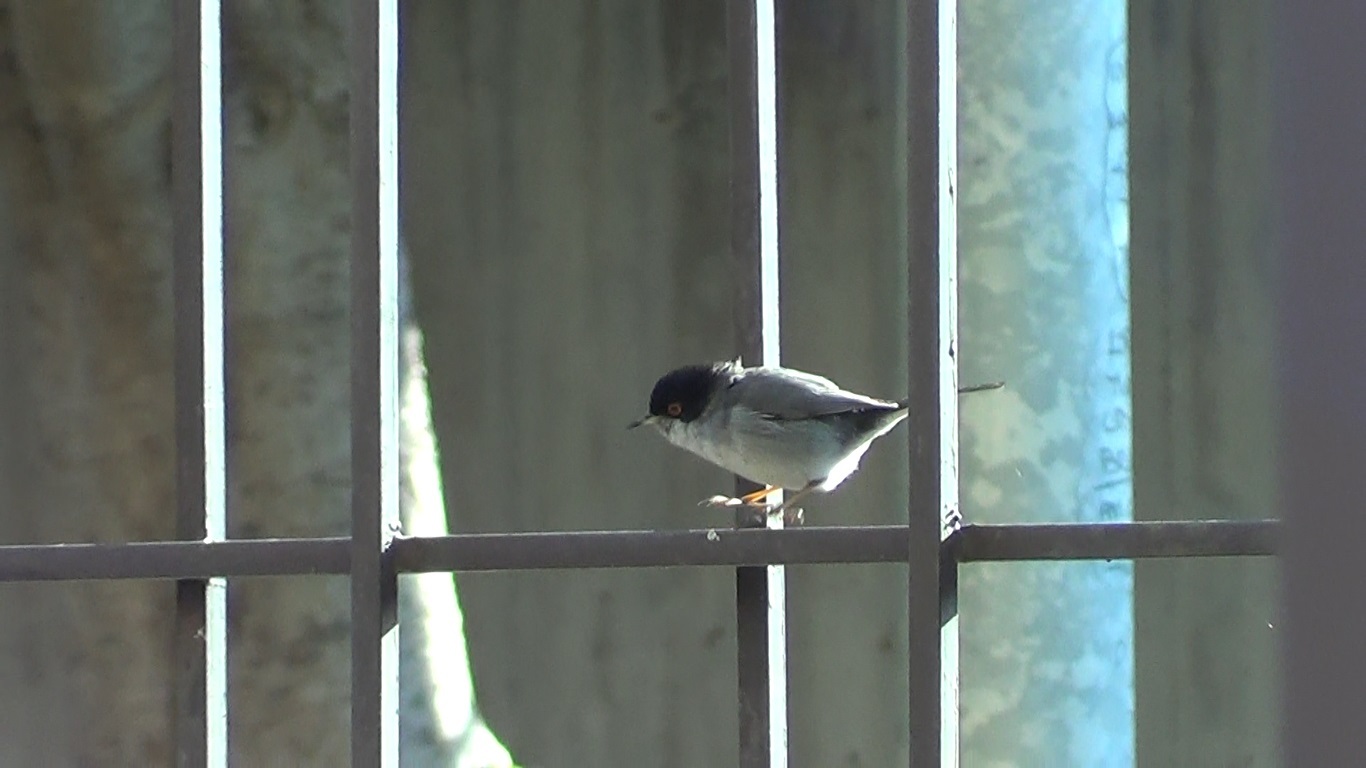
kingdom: Animalia
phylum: Chordata
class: Aves
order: Passeriformes
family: Sylviidae
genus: Curruca
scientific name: Curruca melanocephala
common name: Sardinian warbler
